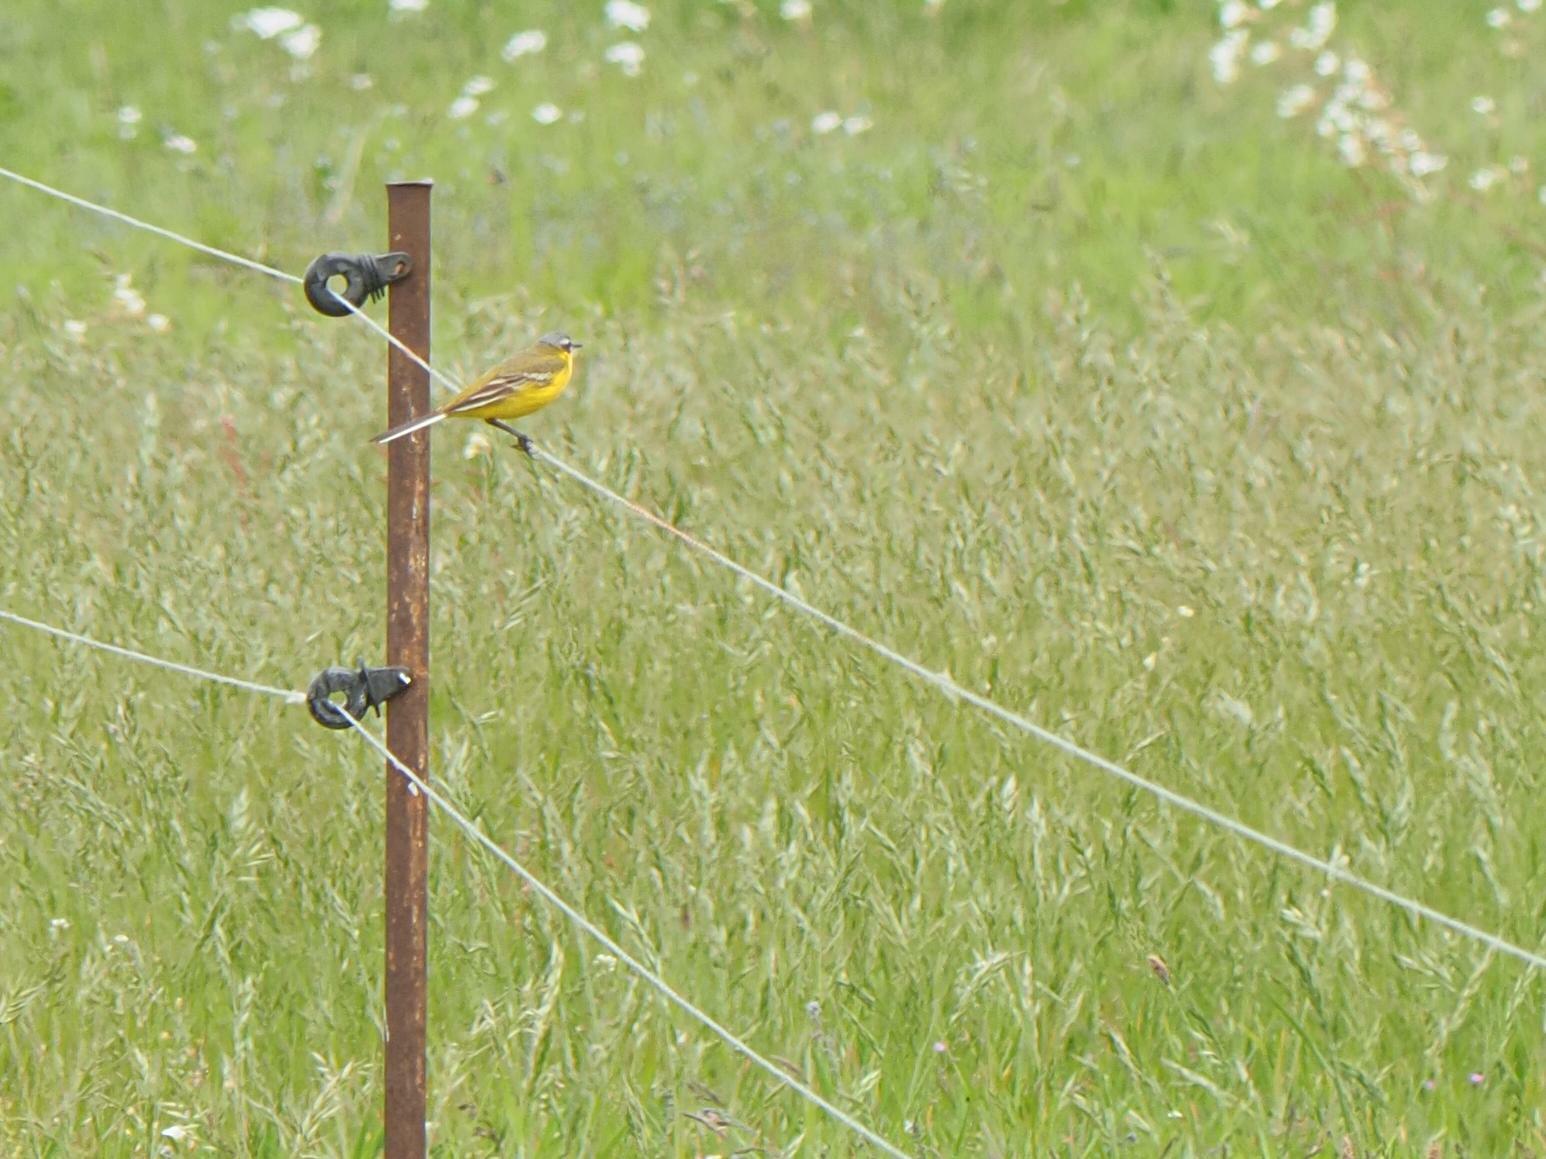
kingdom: Animalia
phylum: Chordata
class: Aves
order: Passeriformes
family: Motacillidae
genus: Motacilla
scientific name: Motacilla flava
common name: Western yellow wagtail
